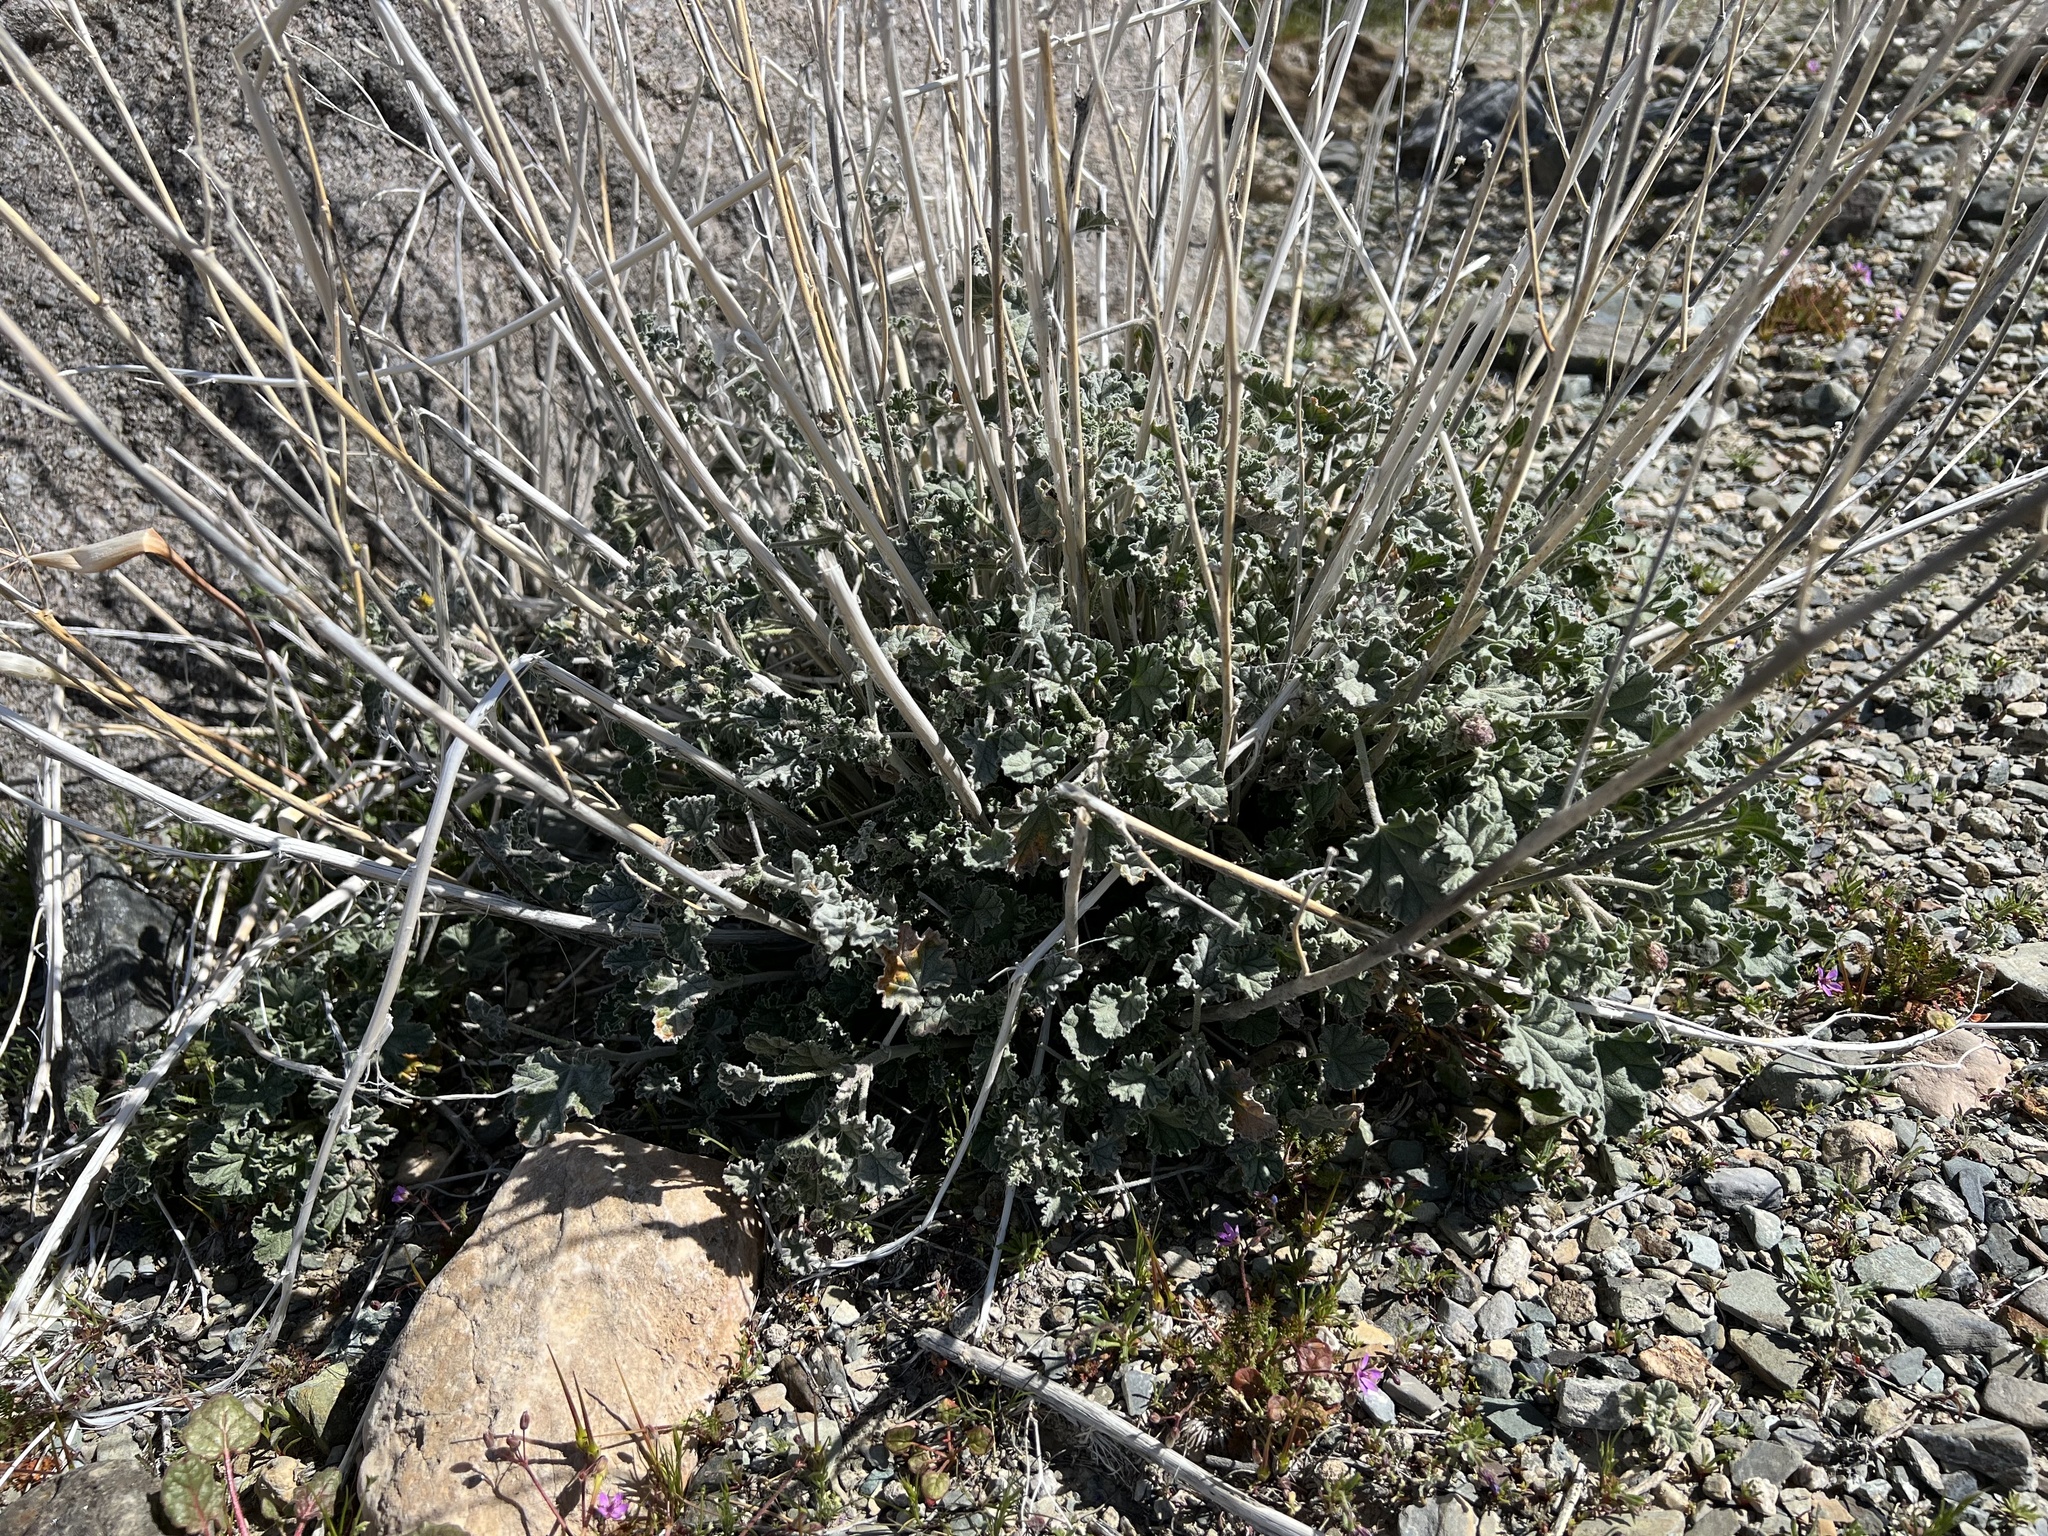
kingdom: Plantae
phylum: Tracheophyta
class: Magnoliopsida
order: Malvales
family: Malvaceae
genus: Sphaeralcea
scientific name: Sphaeralcea ambigua
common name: Apricot globe-mallow
